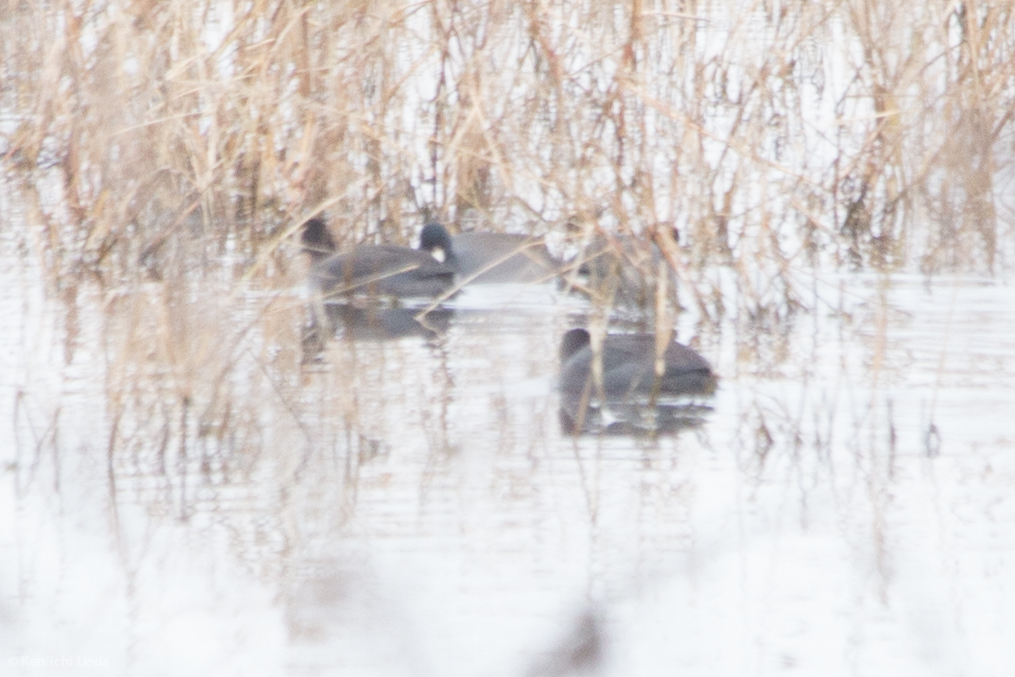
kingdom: Animalia
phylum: Chordata
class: Aves
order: Gruiformes
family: Rallidae
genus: Fulica
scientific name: Fulica americana
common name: American coot
